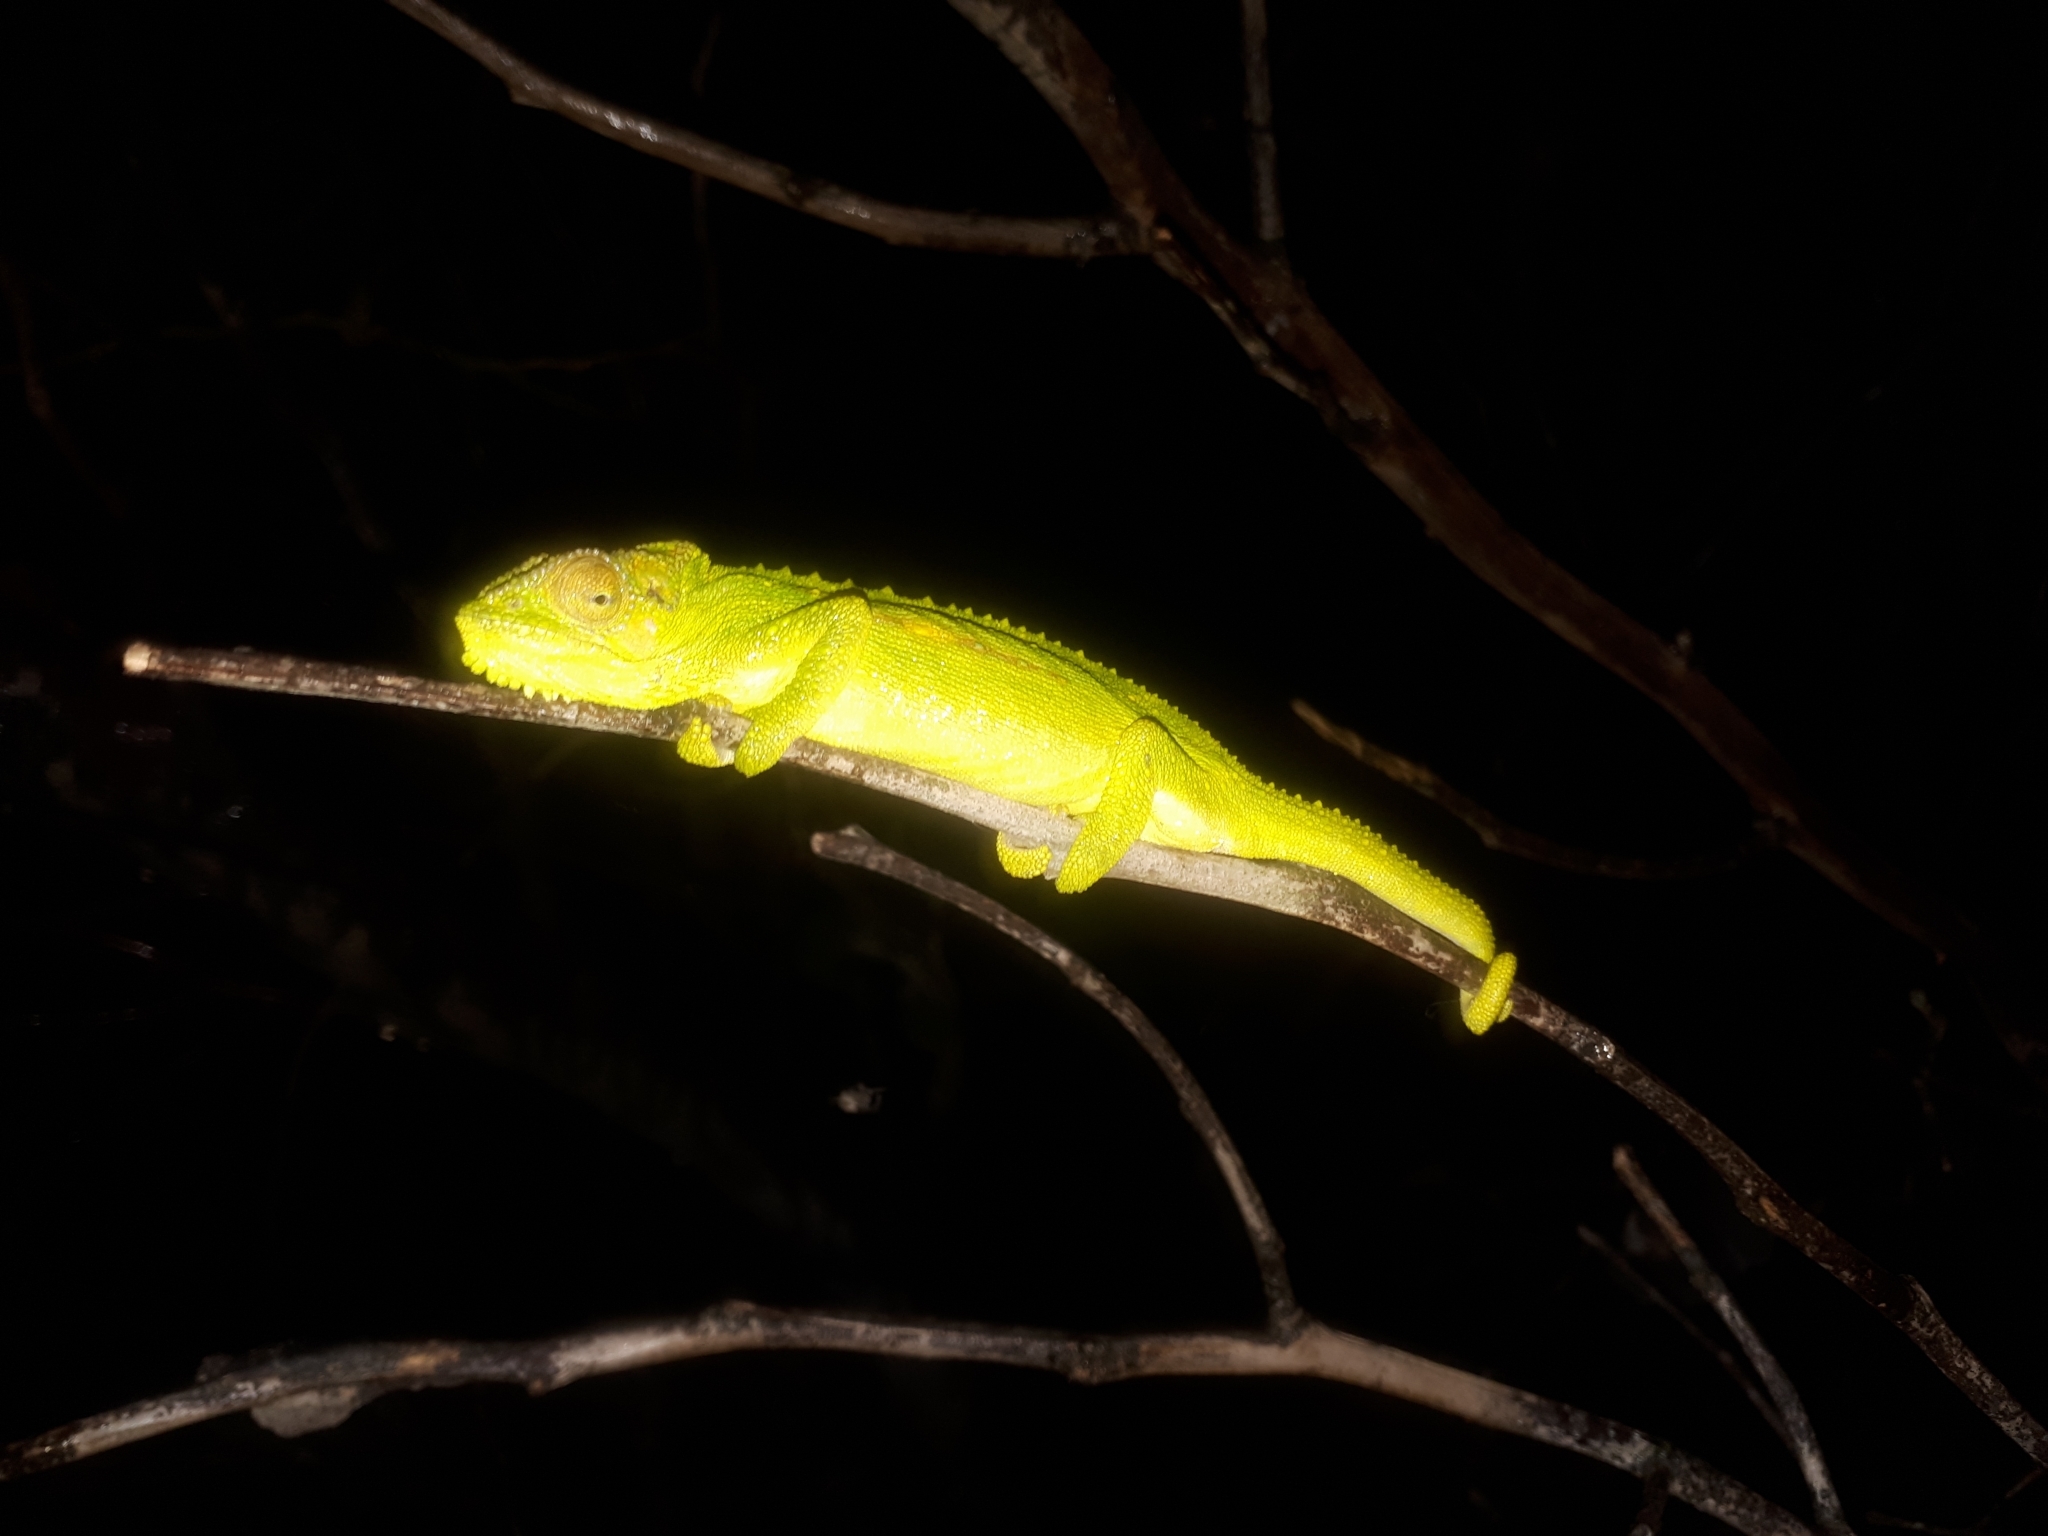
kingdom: Animalia
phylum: Chordata
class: Squamata
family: Chamaeleonidae
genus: Bradypodion
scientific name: Bradypodion pumilum
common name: Cape dwarf chameleon
